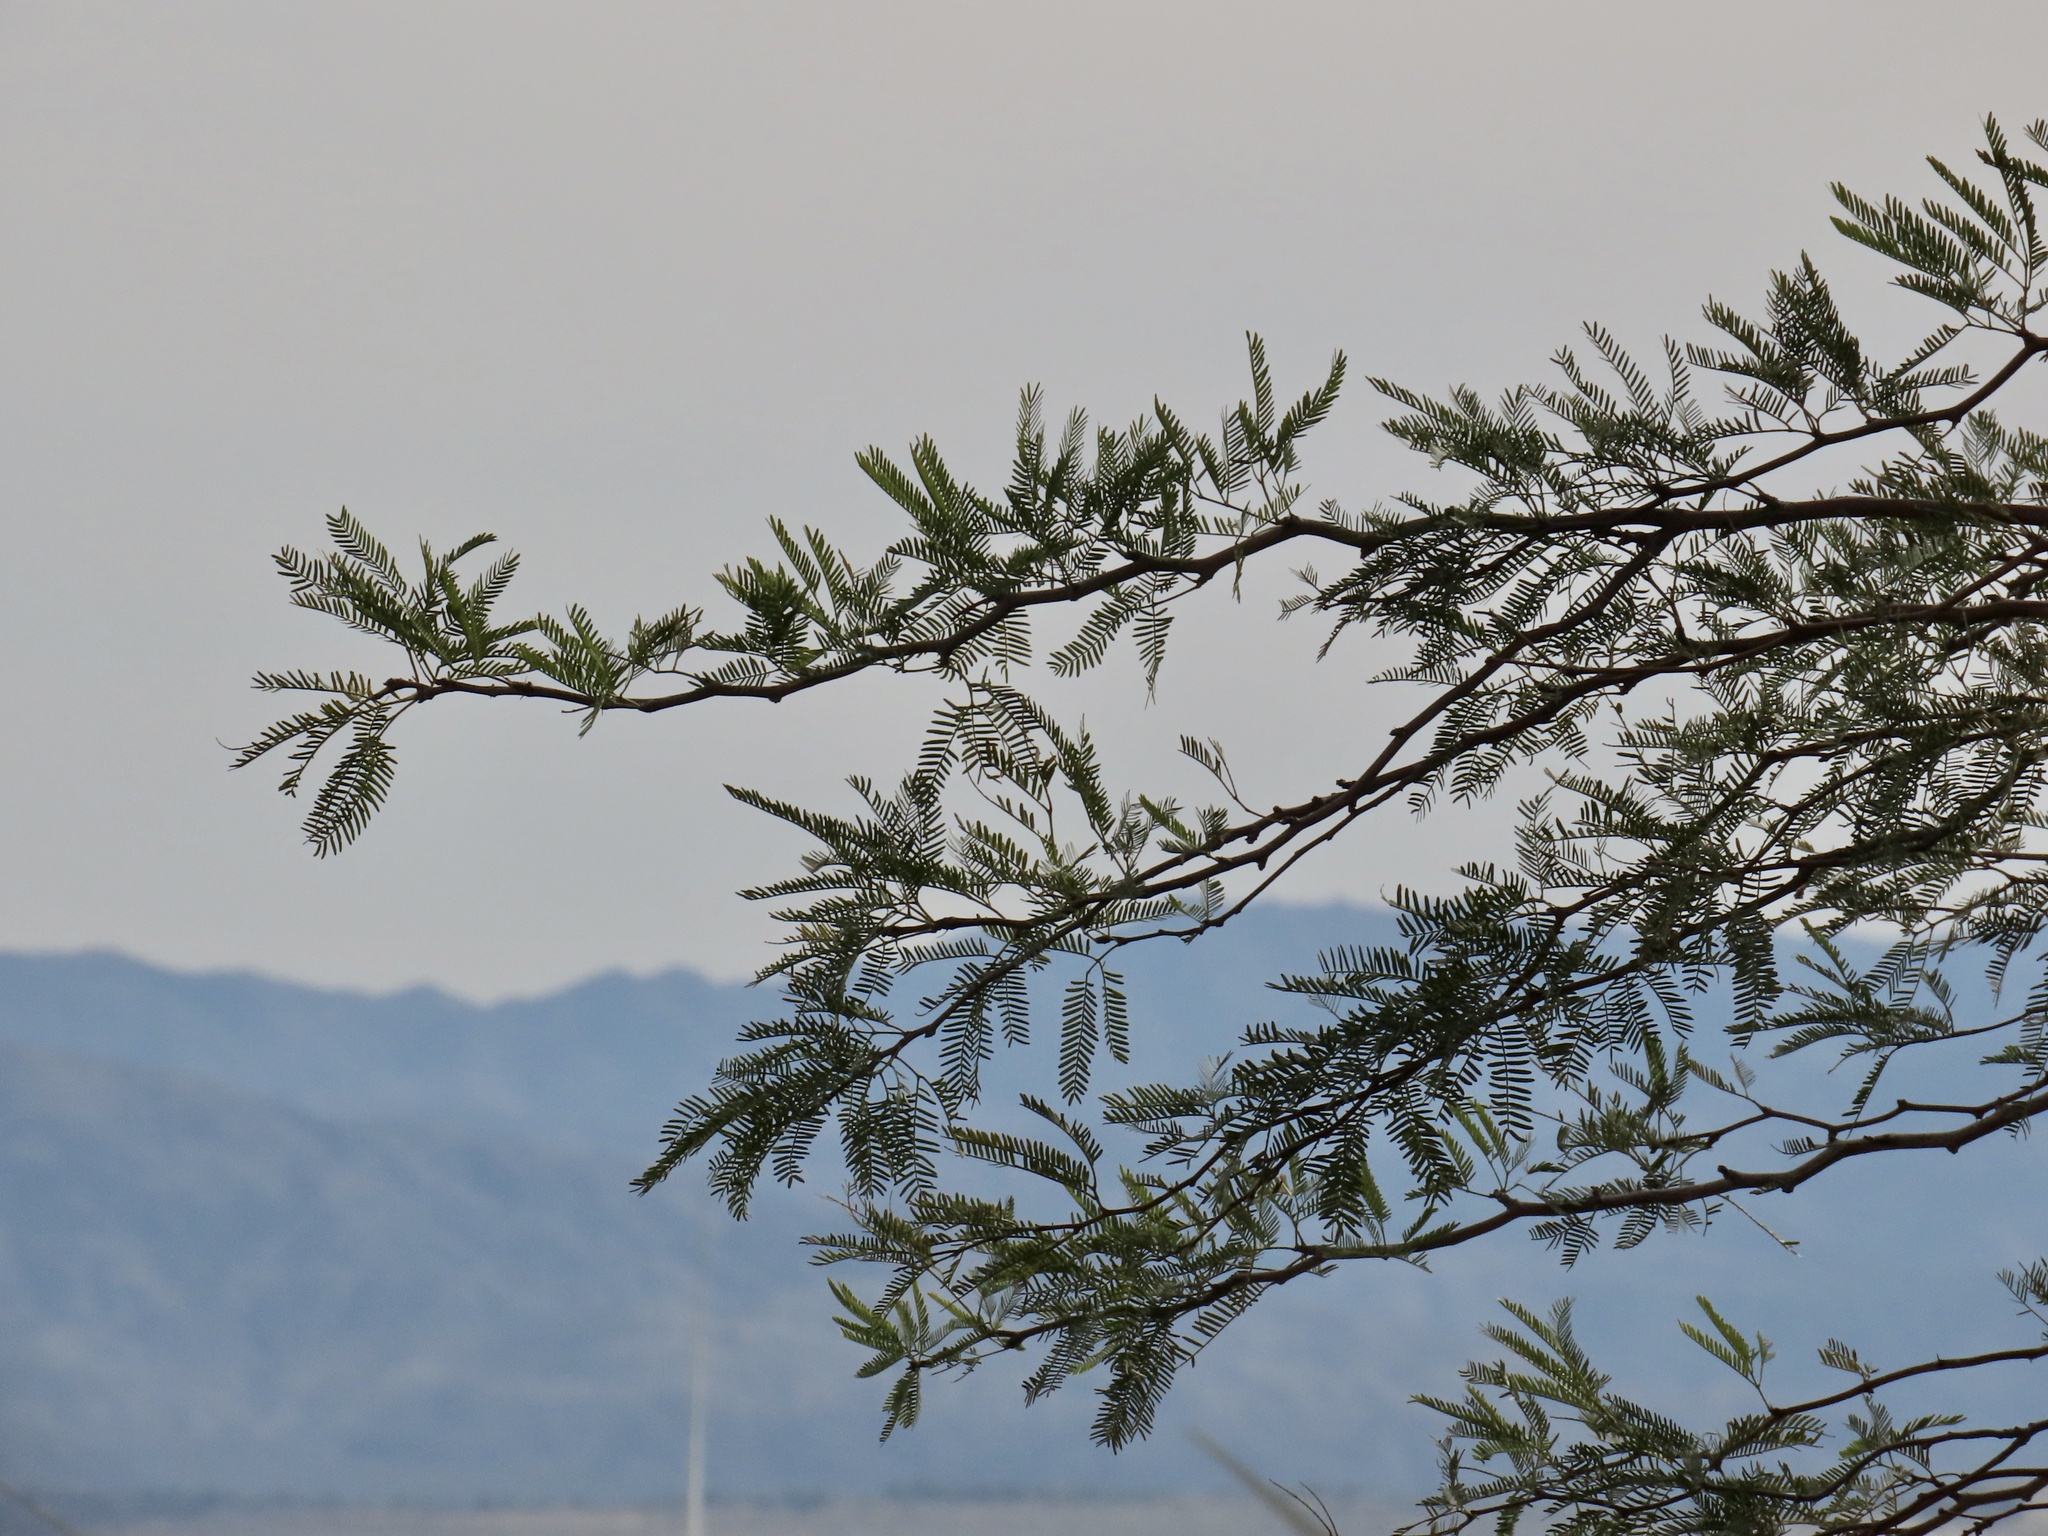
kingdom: Plantae
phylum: Tracheophyta
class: Magnoliopsida
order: Fabales
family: Fabaceae
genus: Prosopis
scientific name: Prosopis pubescens
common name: Screw-bean
